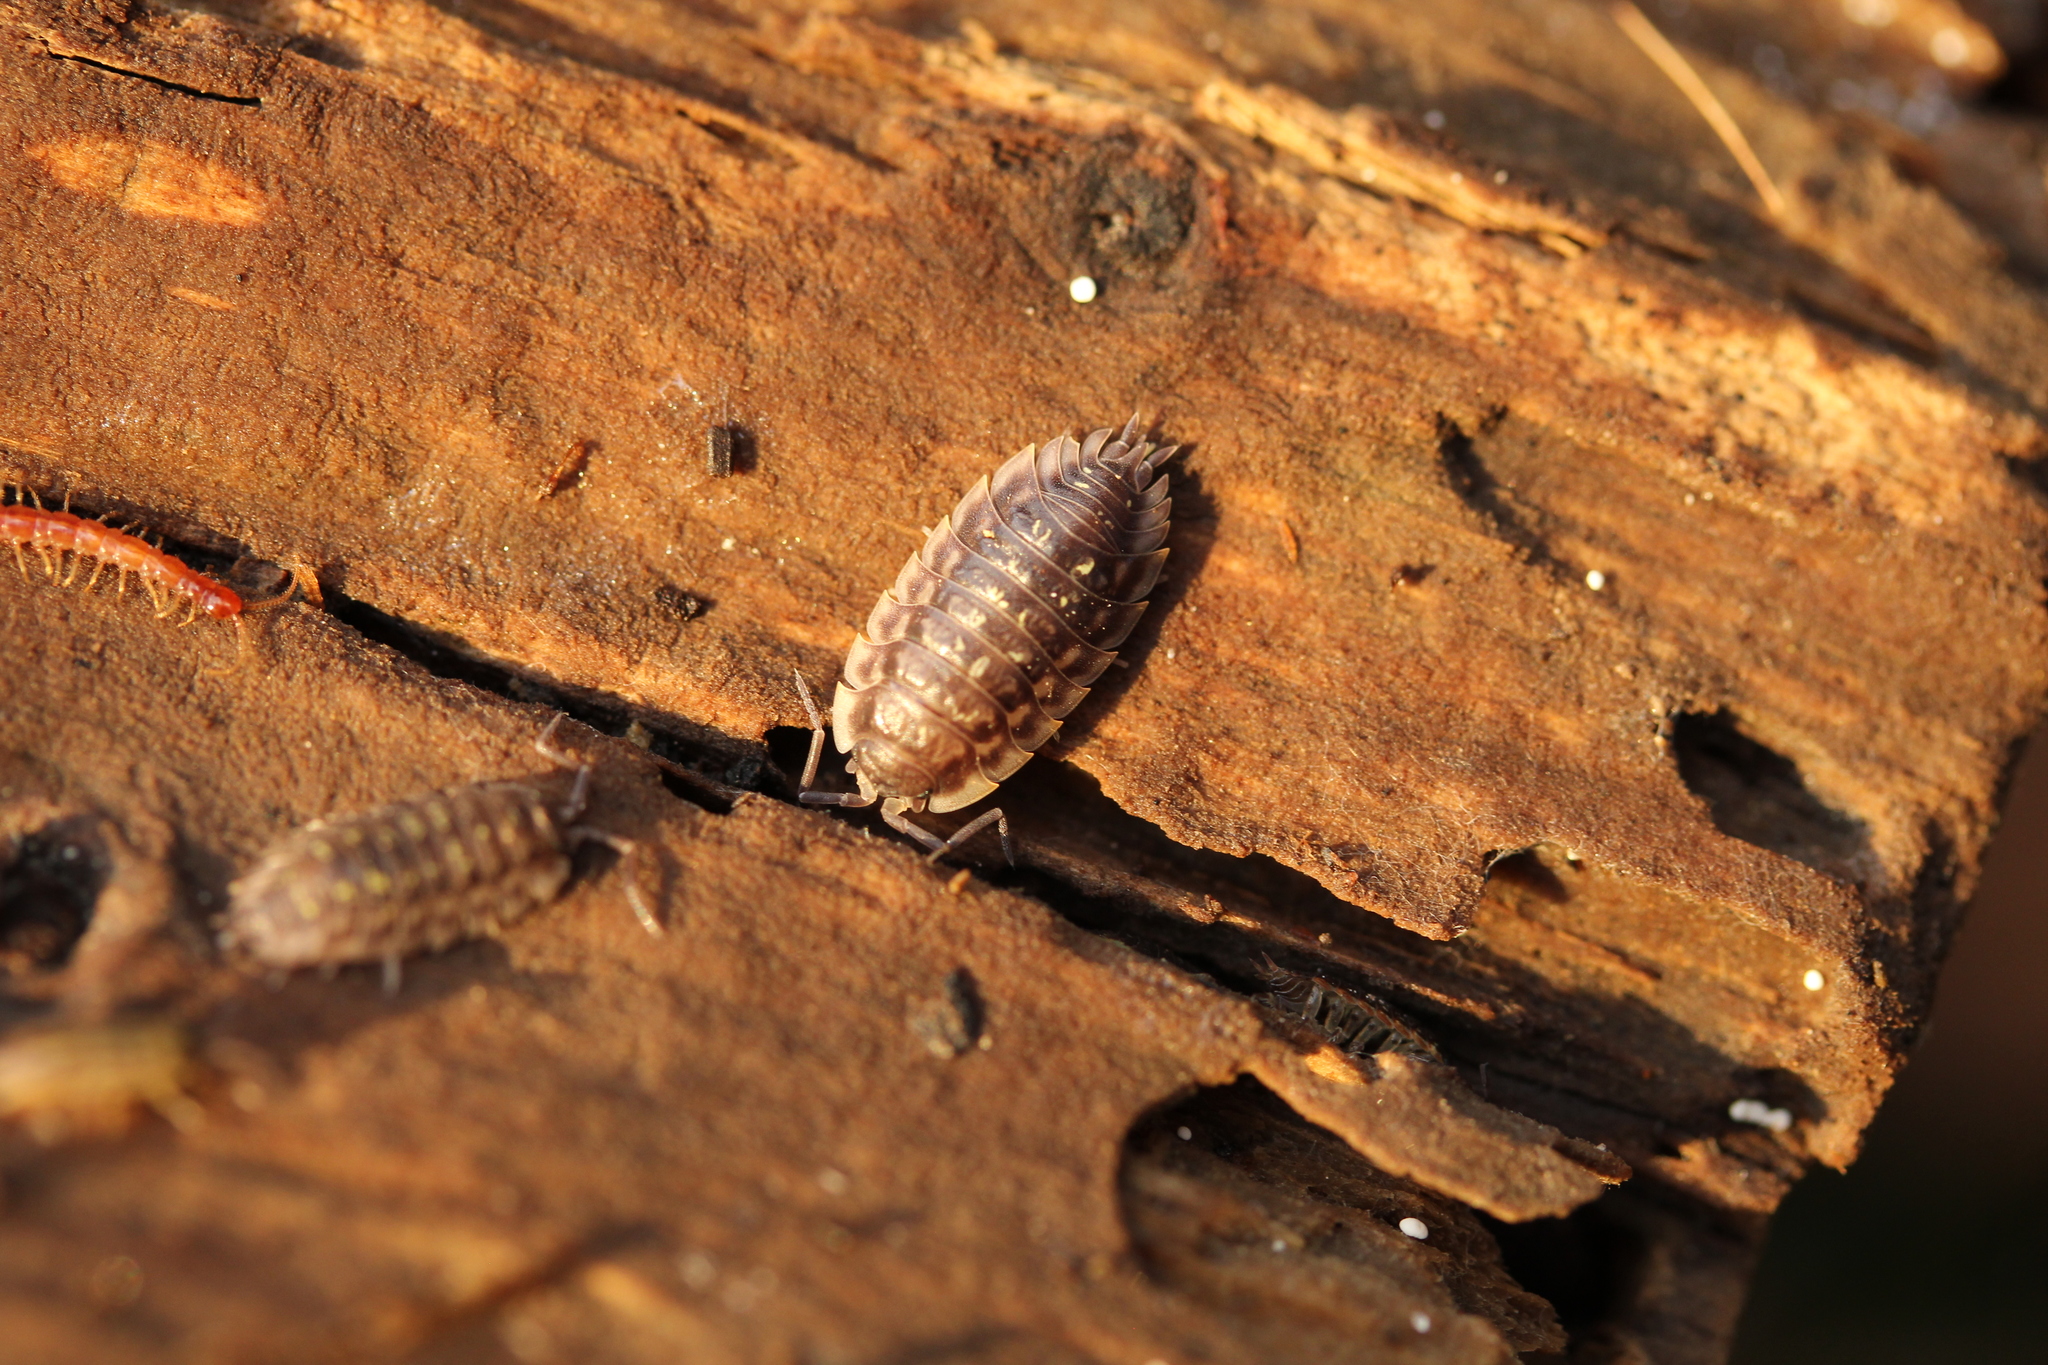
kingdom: Animalia
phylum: Arthropoda
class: Malacostraca
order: Isopoda
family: Oniscidae
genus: Oniscus
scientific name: Oniscus asellus
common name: Common shiny woodlouse
